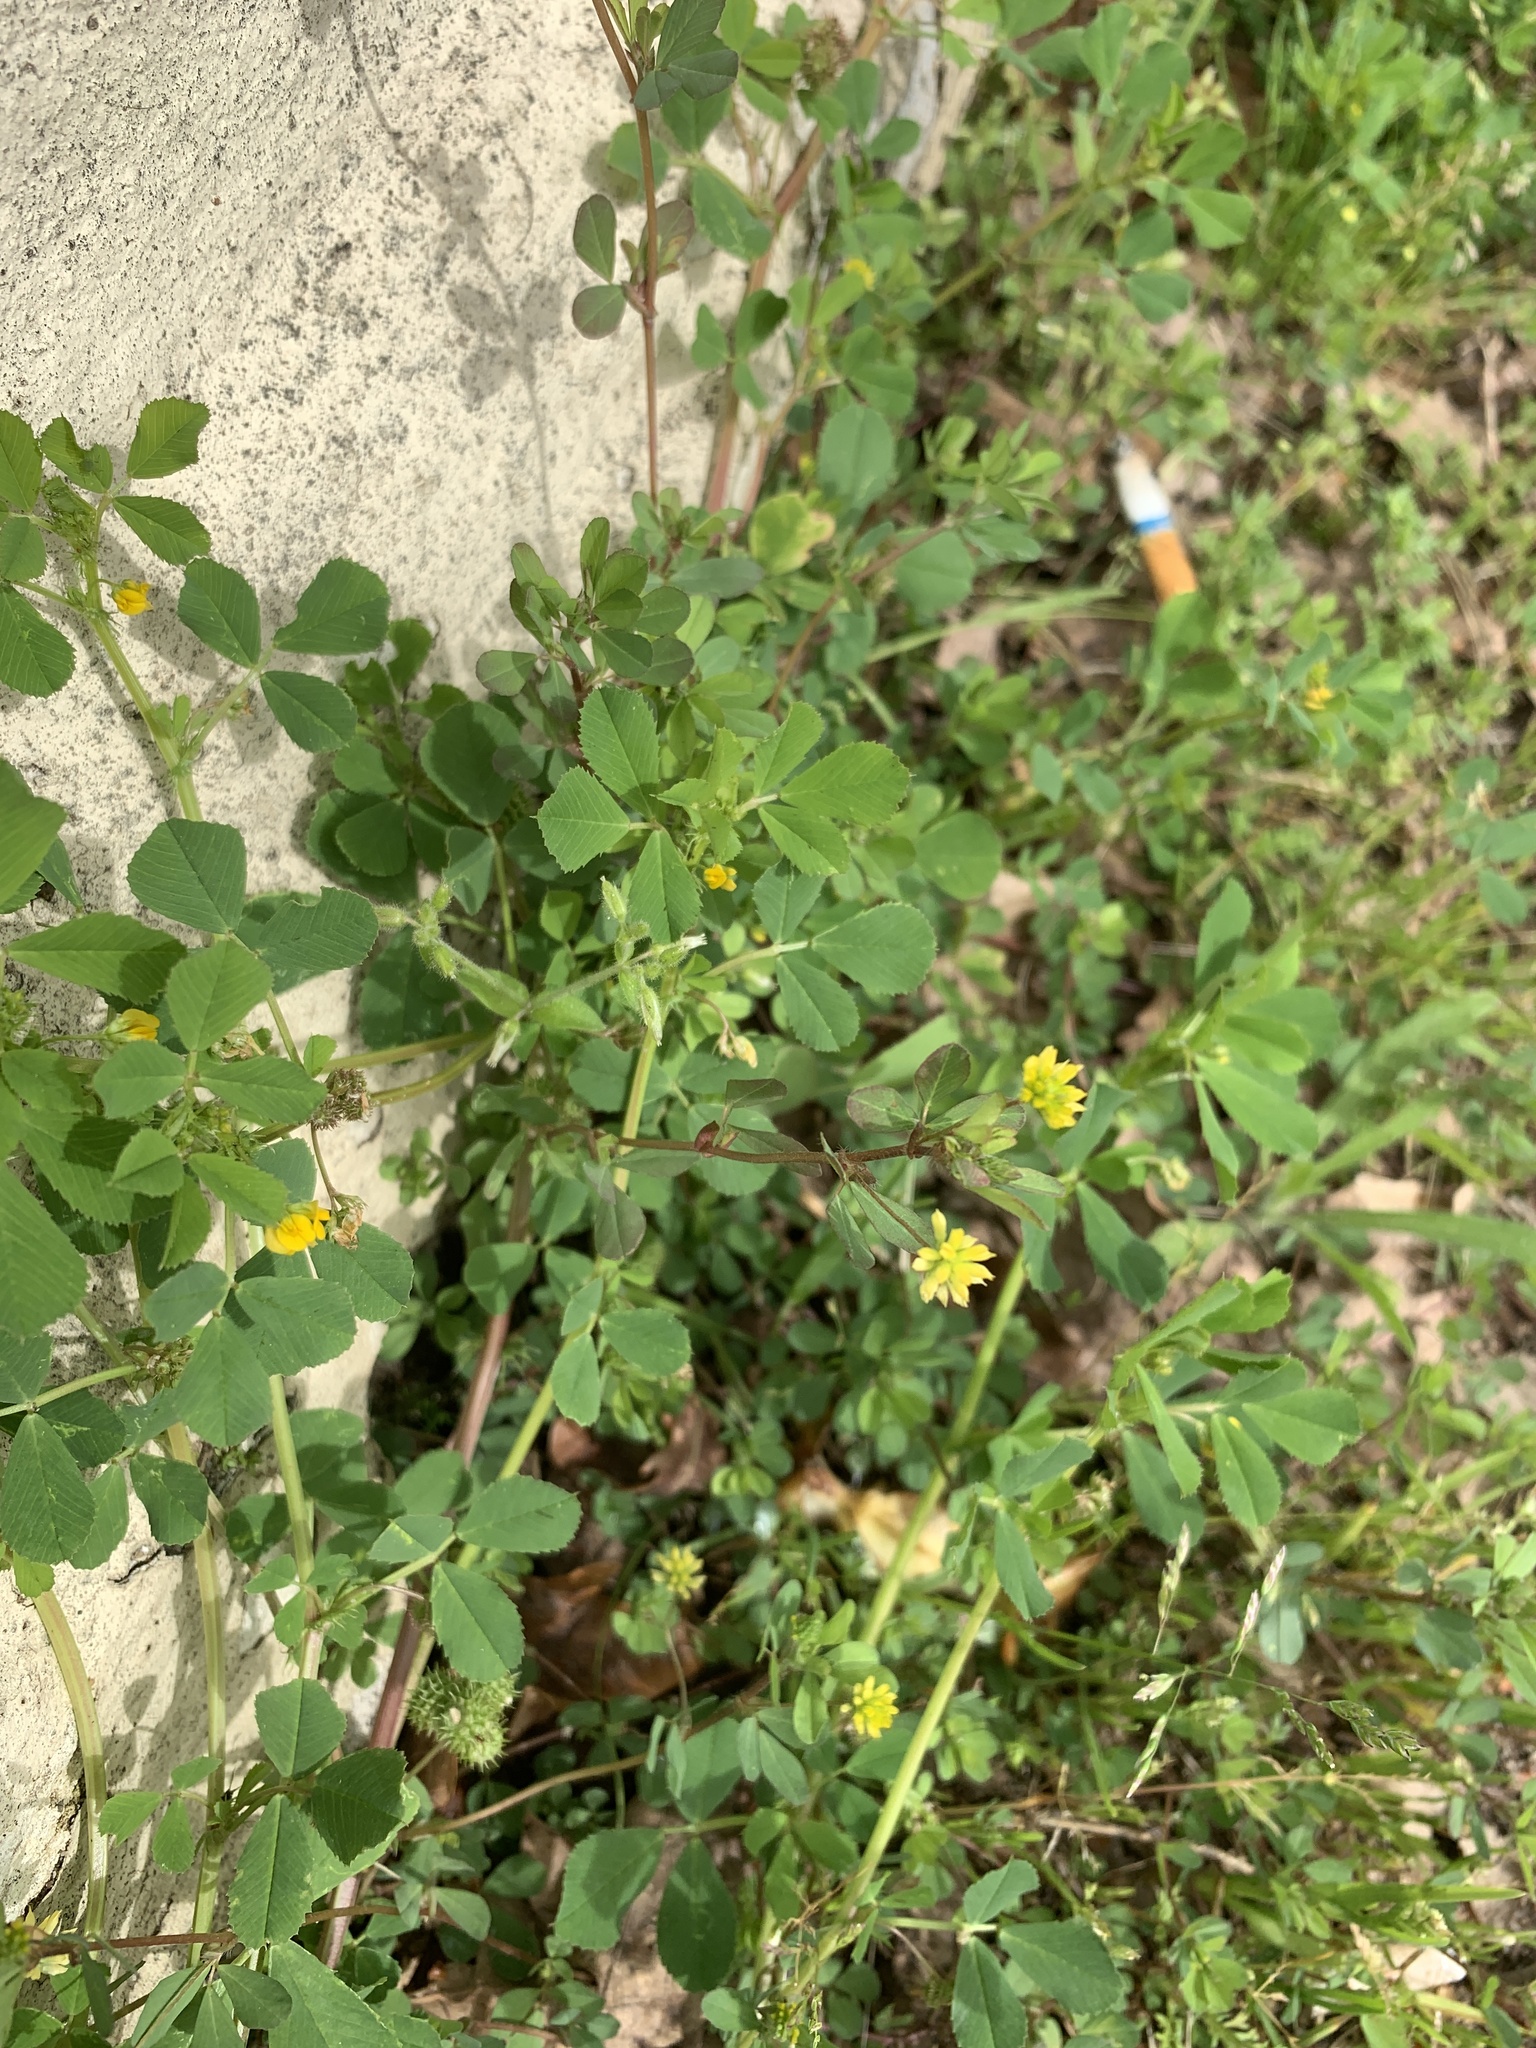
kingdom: Plantae
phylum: Tracheophyta
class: Magnoliopsida
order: Fabales
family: Fabaceae
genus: Trifolium
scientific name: Trifolium dubium
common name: Suckling clover
